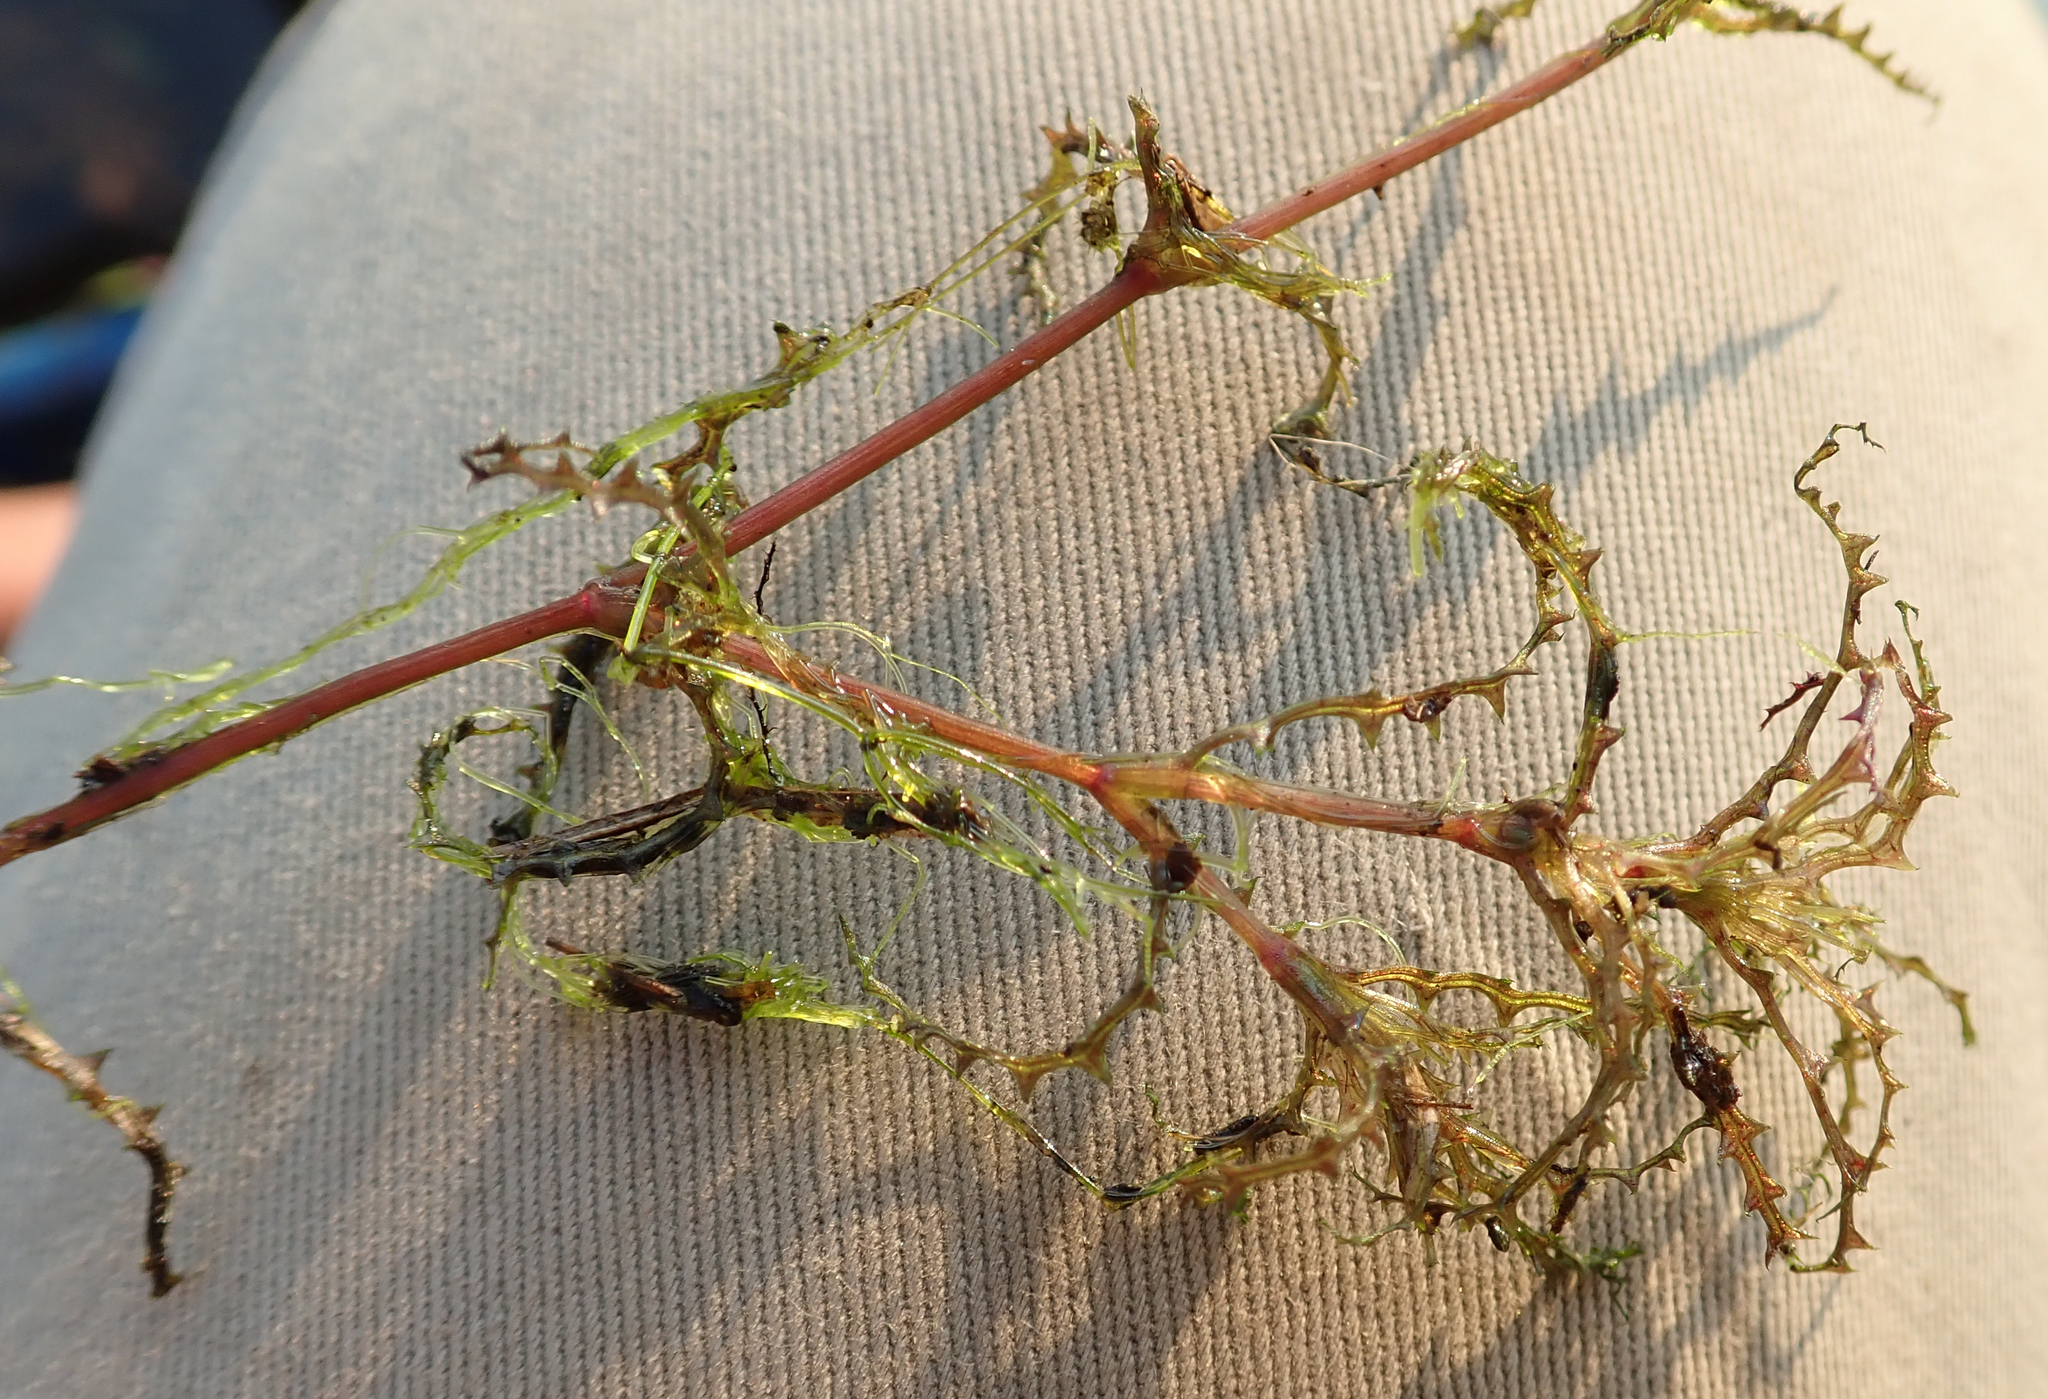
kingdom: Plantae
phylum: Tracheophyta
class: Liliopsida
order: Alismatales
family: Hydrocharitaceae
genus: Najas
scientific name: Najas horrida
